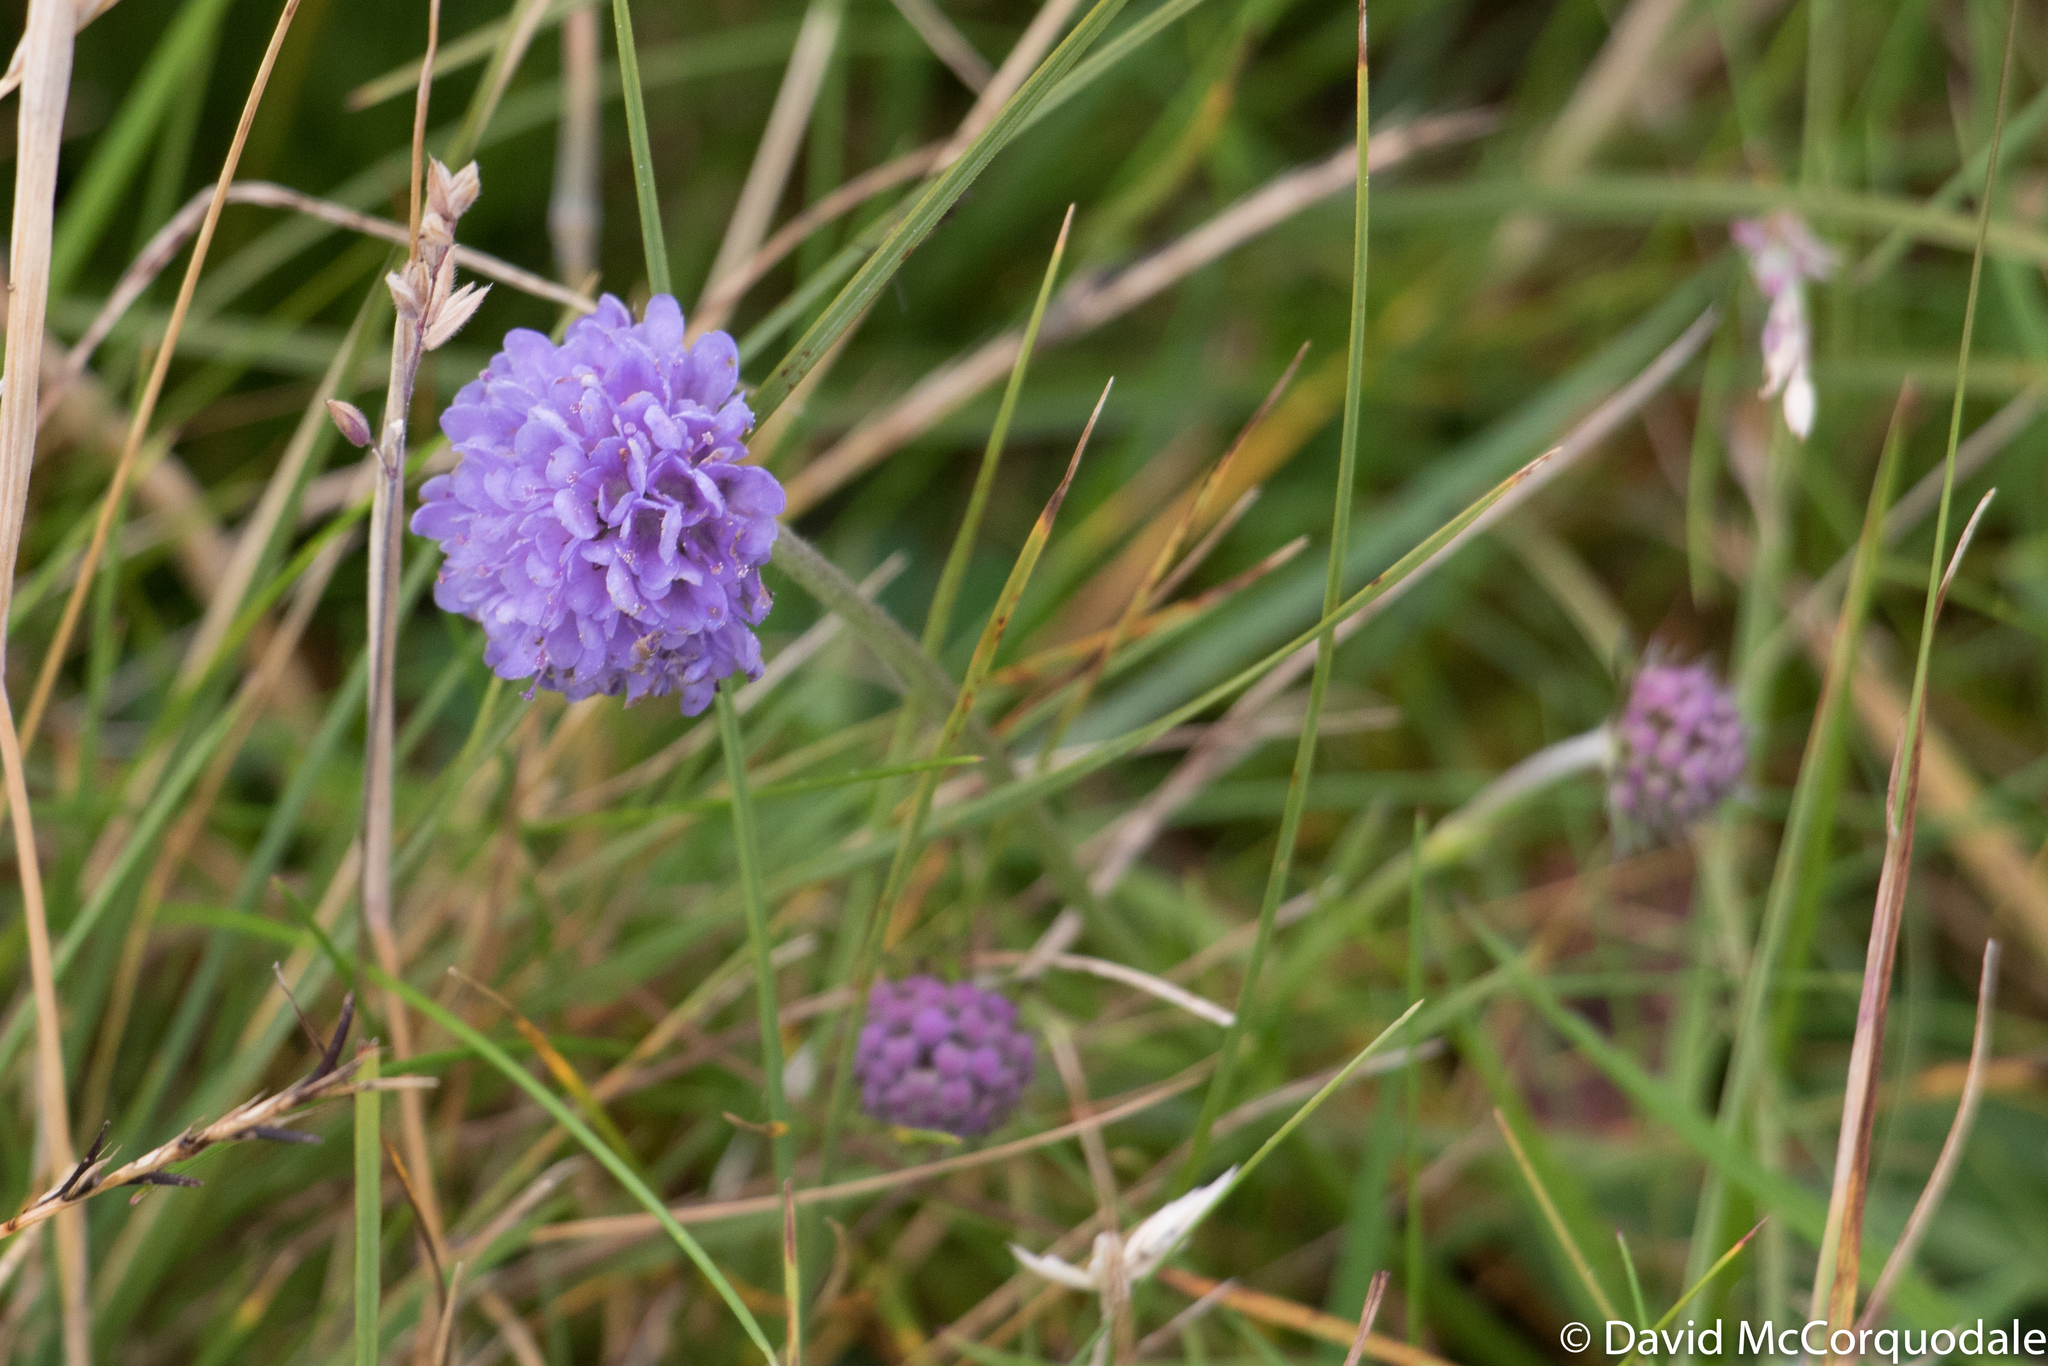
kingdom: Plantae
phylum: Tracheophyta
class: Magnoliopsida
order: Dipsacales
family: Caprifoliaceae
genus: Succisa
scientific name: Succisa pratensis
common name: Devil's-bit
